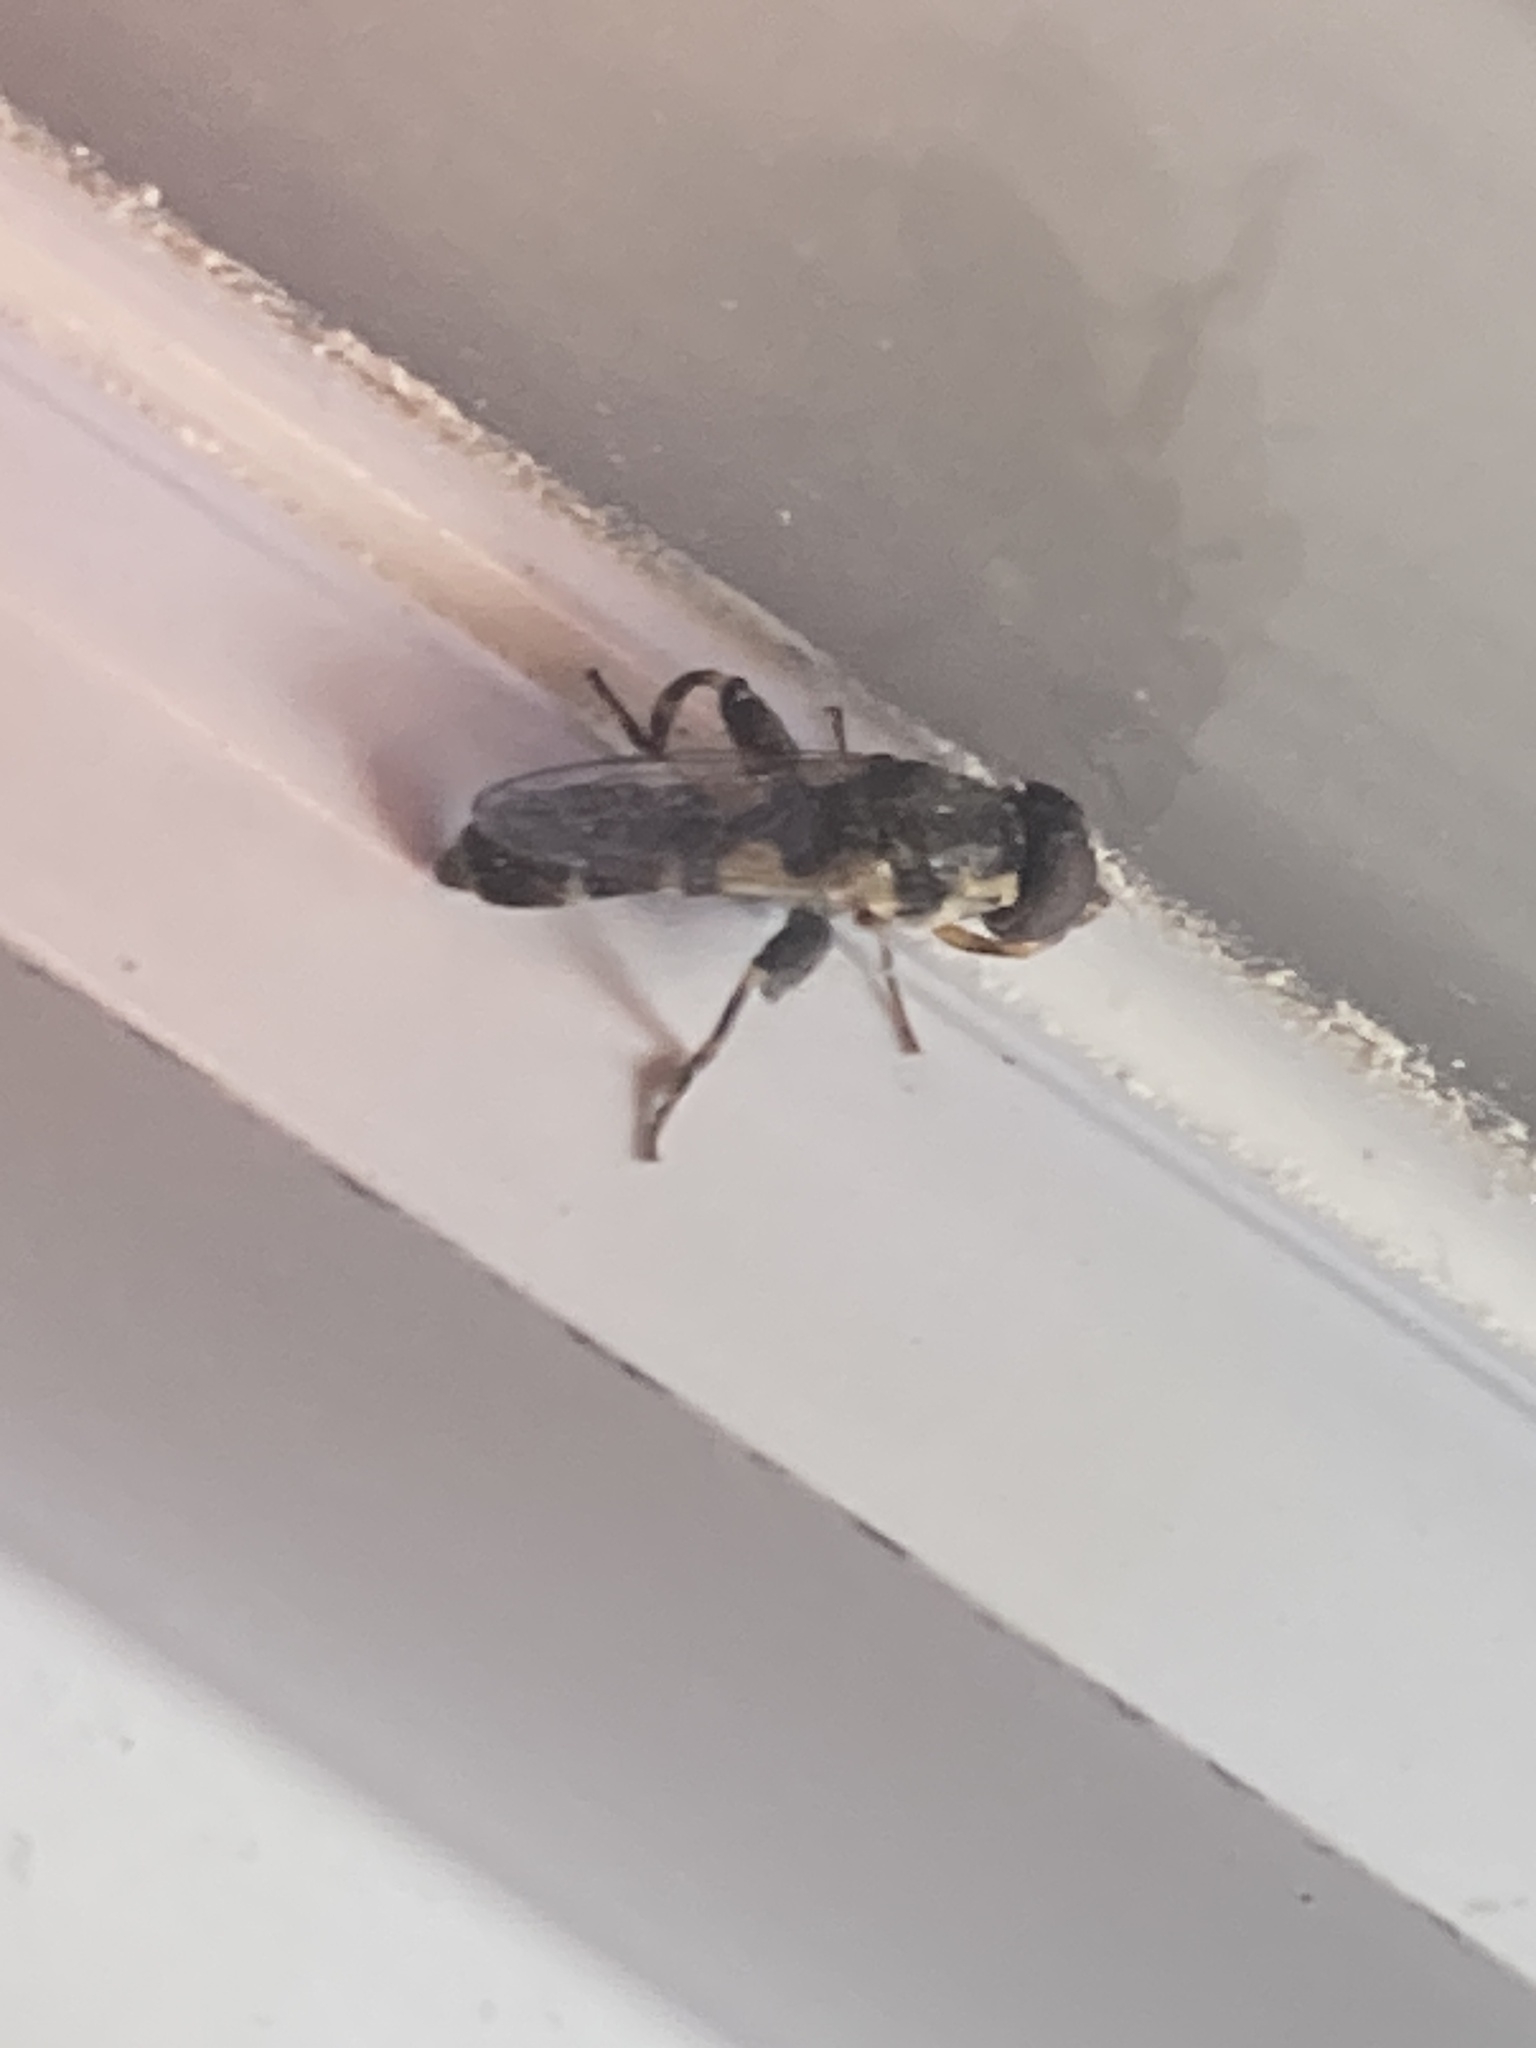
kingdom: Animalia
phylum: Arthropoda
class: Insecta
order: Diptera
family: Syrphidae
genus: Syritta
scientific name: Syritta pipiens
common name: Hover fly
